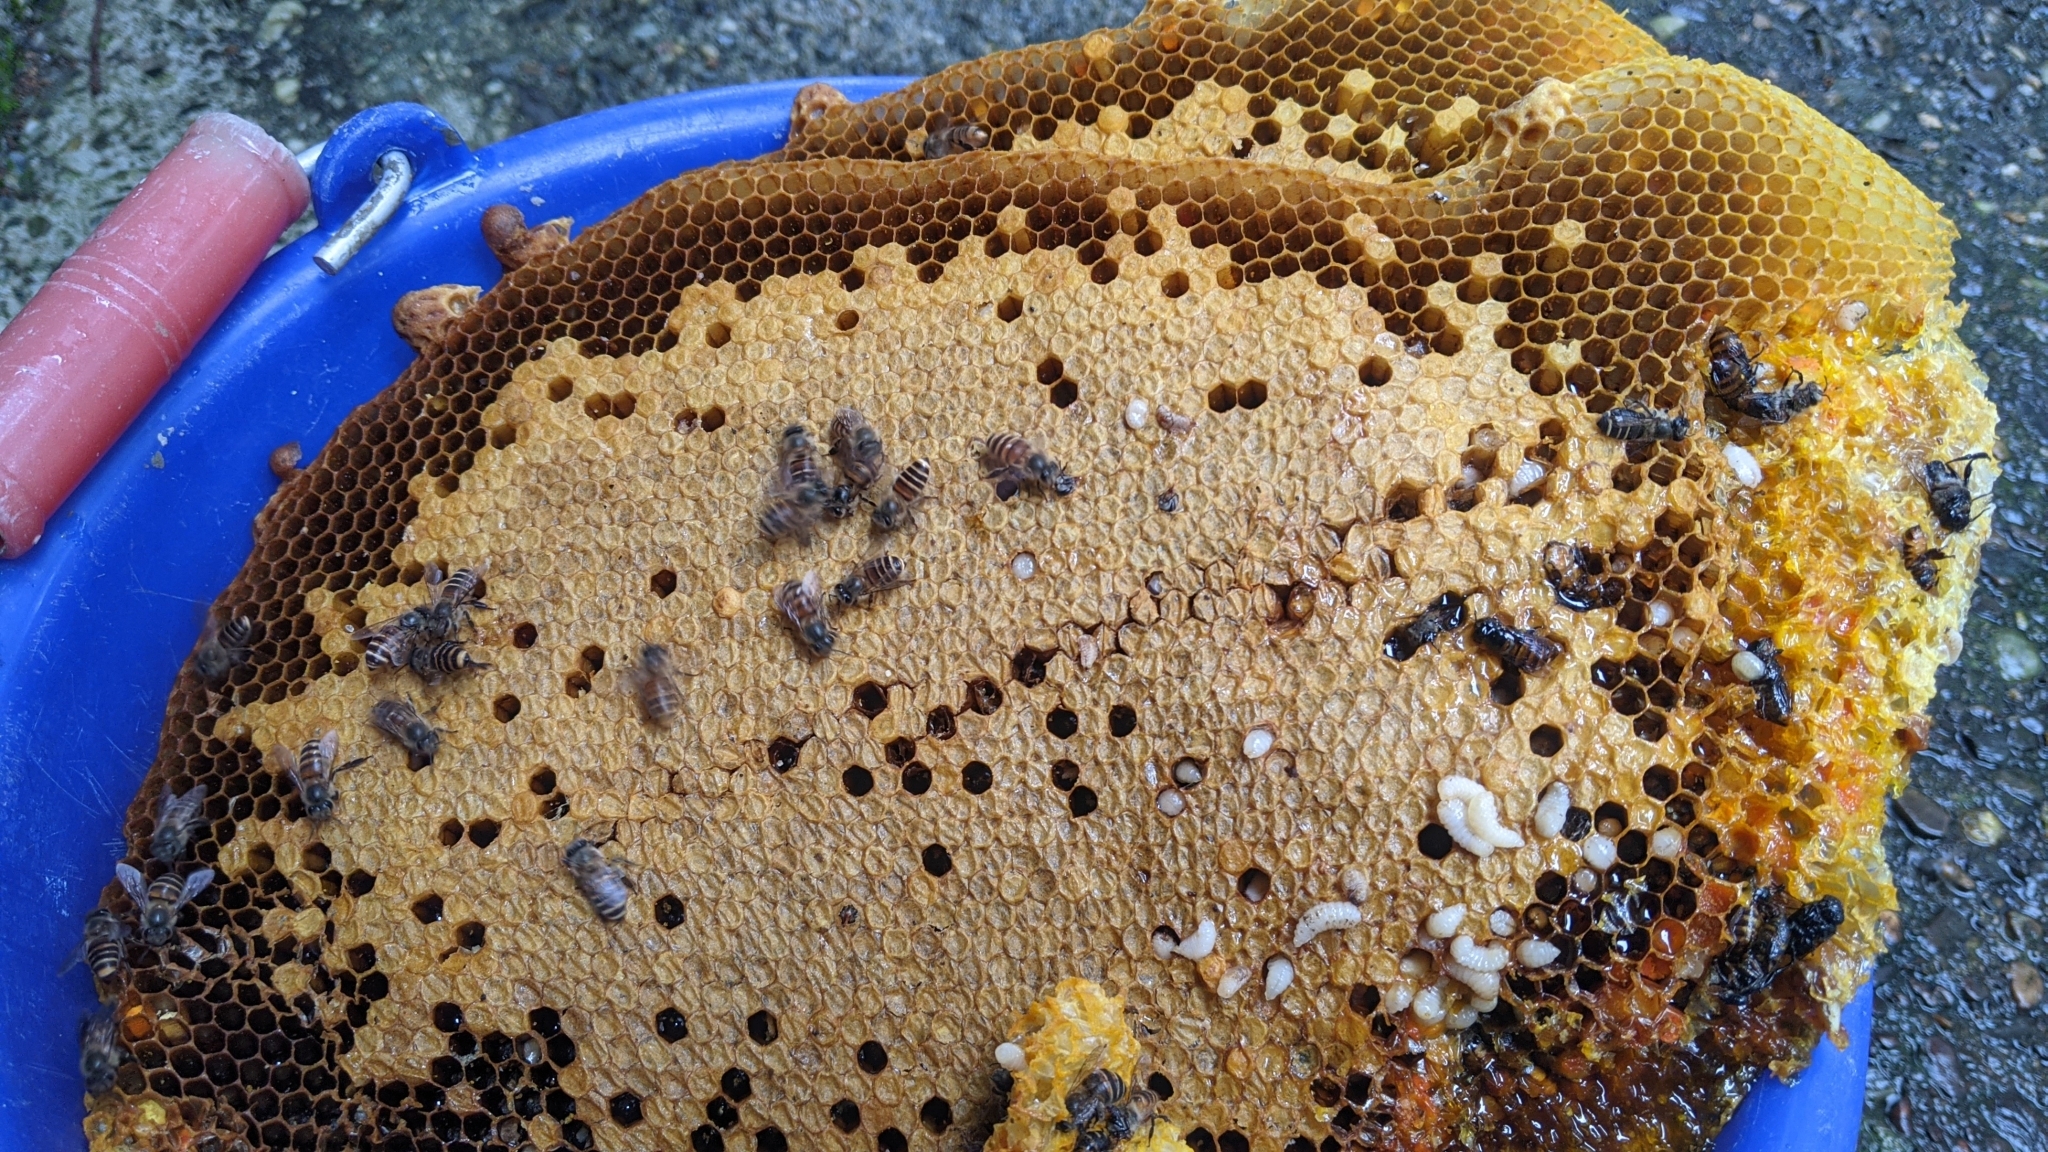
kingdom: Animalia
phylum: Arthropoda
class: Insecta
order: Hymenoptera
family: Apidae
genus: Apis
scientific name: Apis cerana
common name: Honey bee
